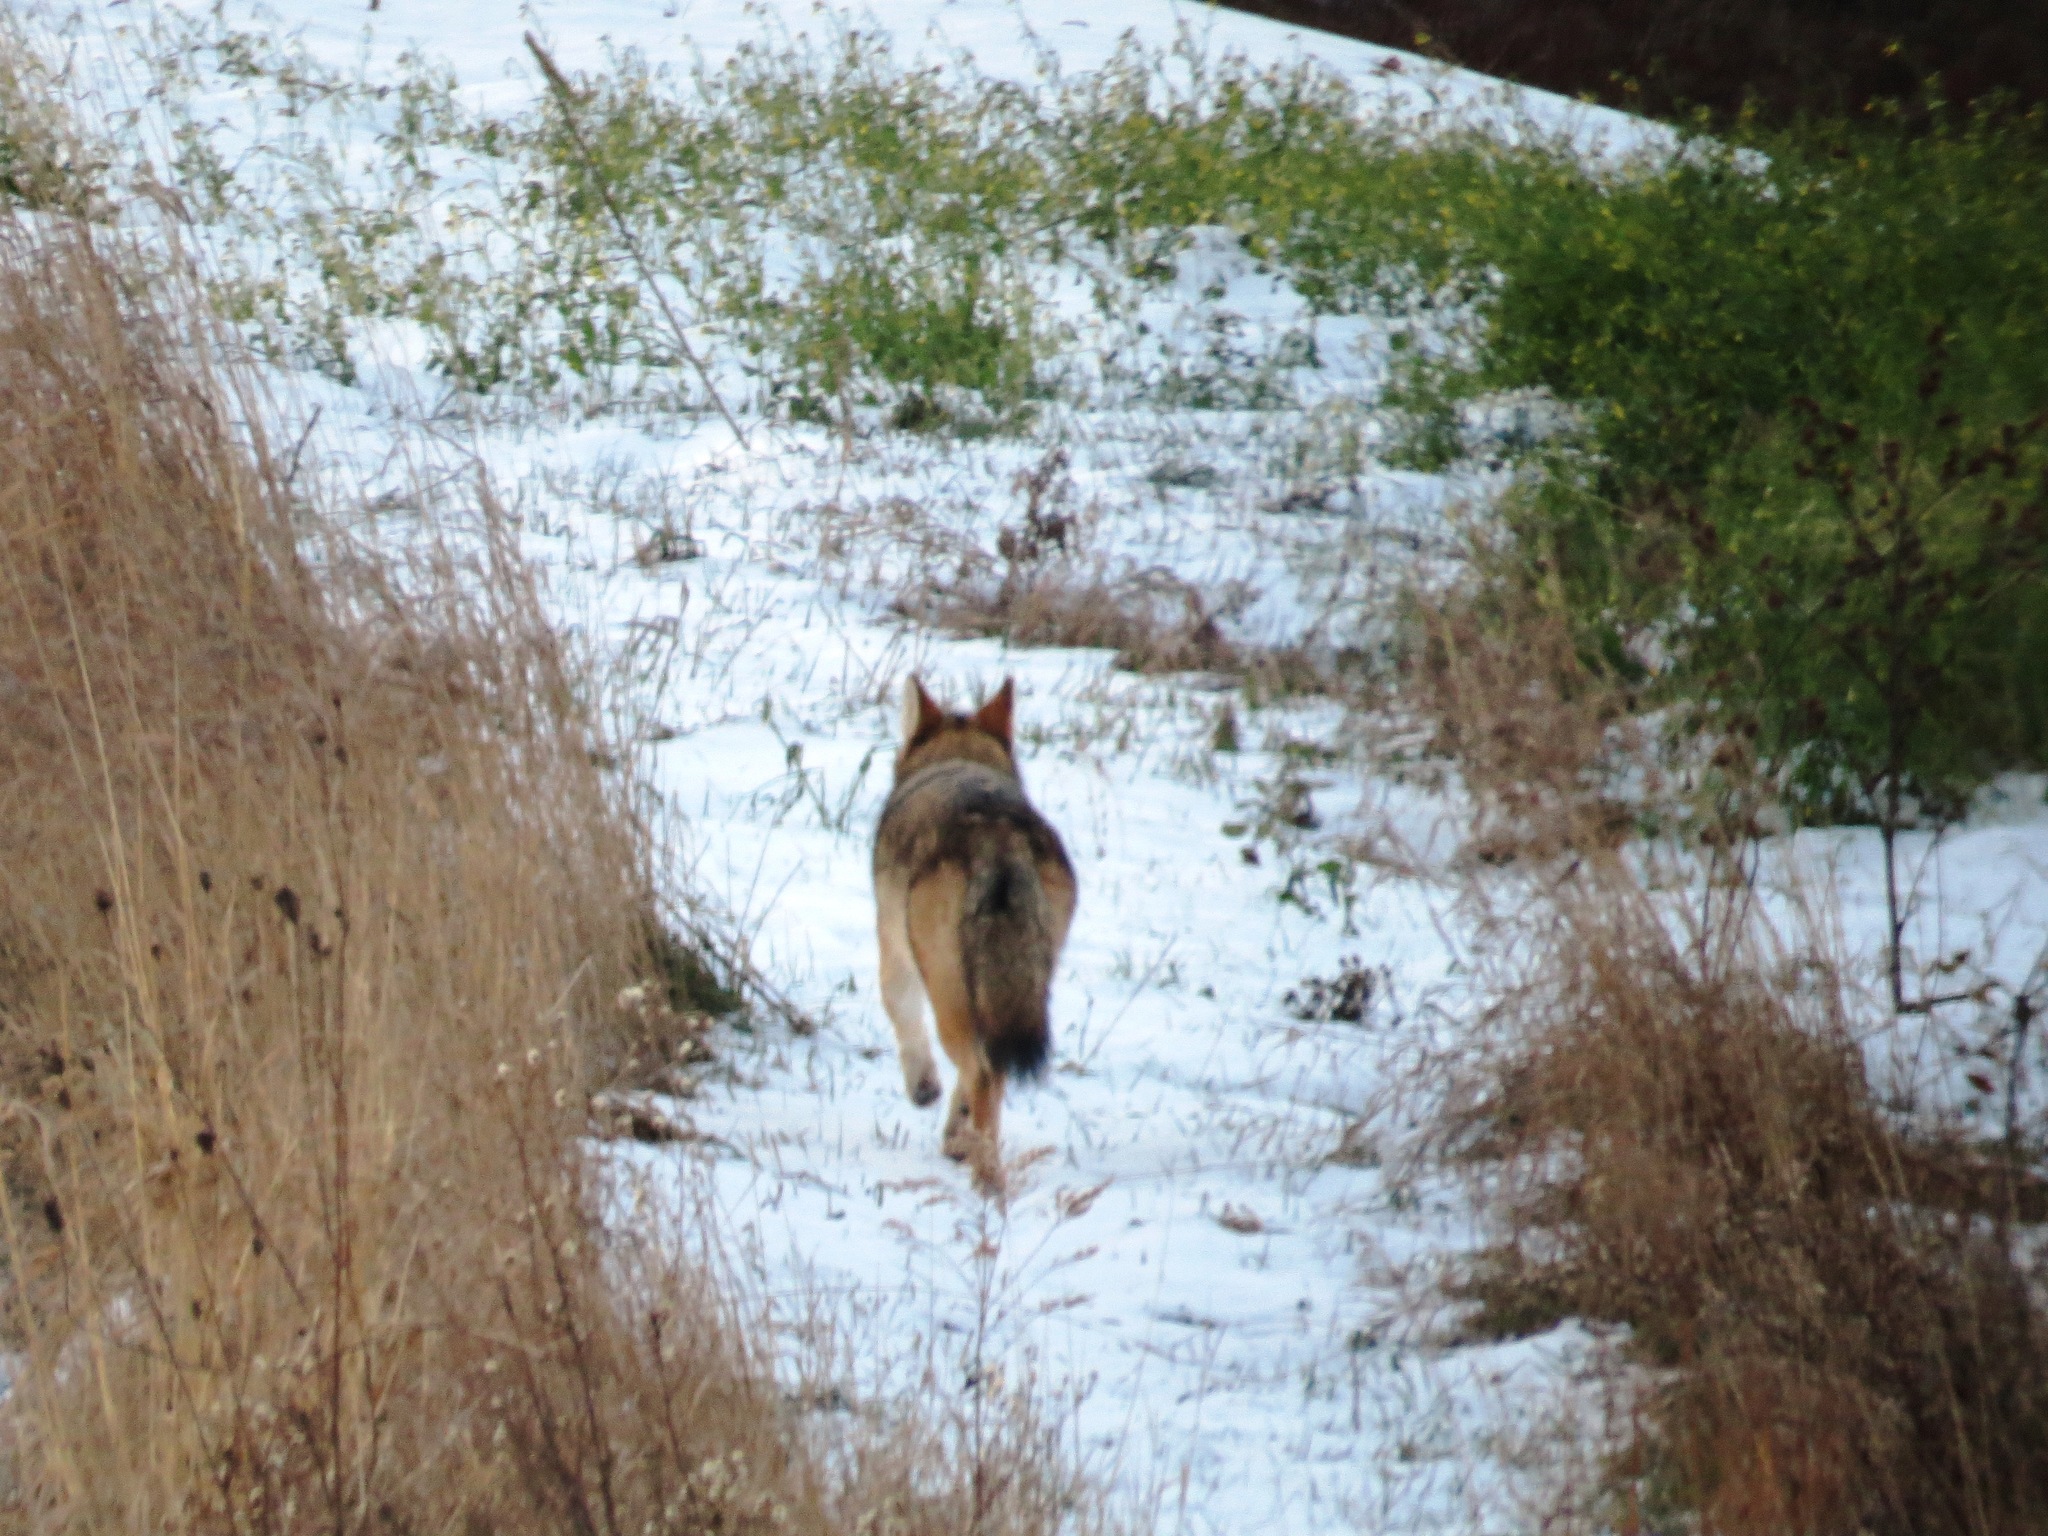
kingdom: Animalia
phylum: Chordata
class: Mammalia
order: Carnivora
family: Canidae
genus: Canis
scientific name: Canis latrans
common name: Coyote
